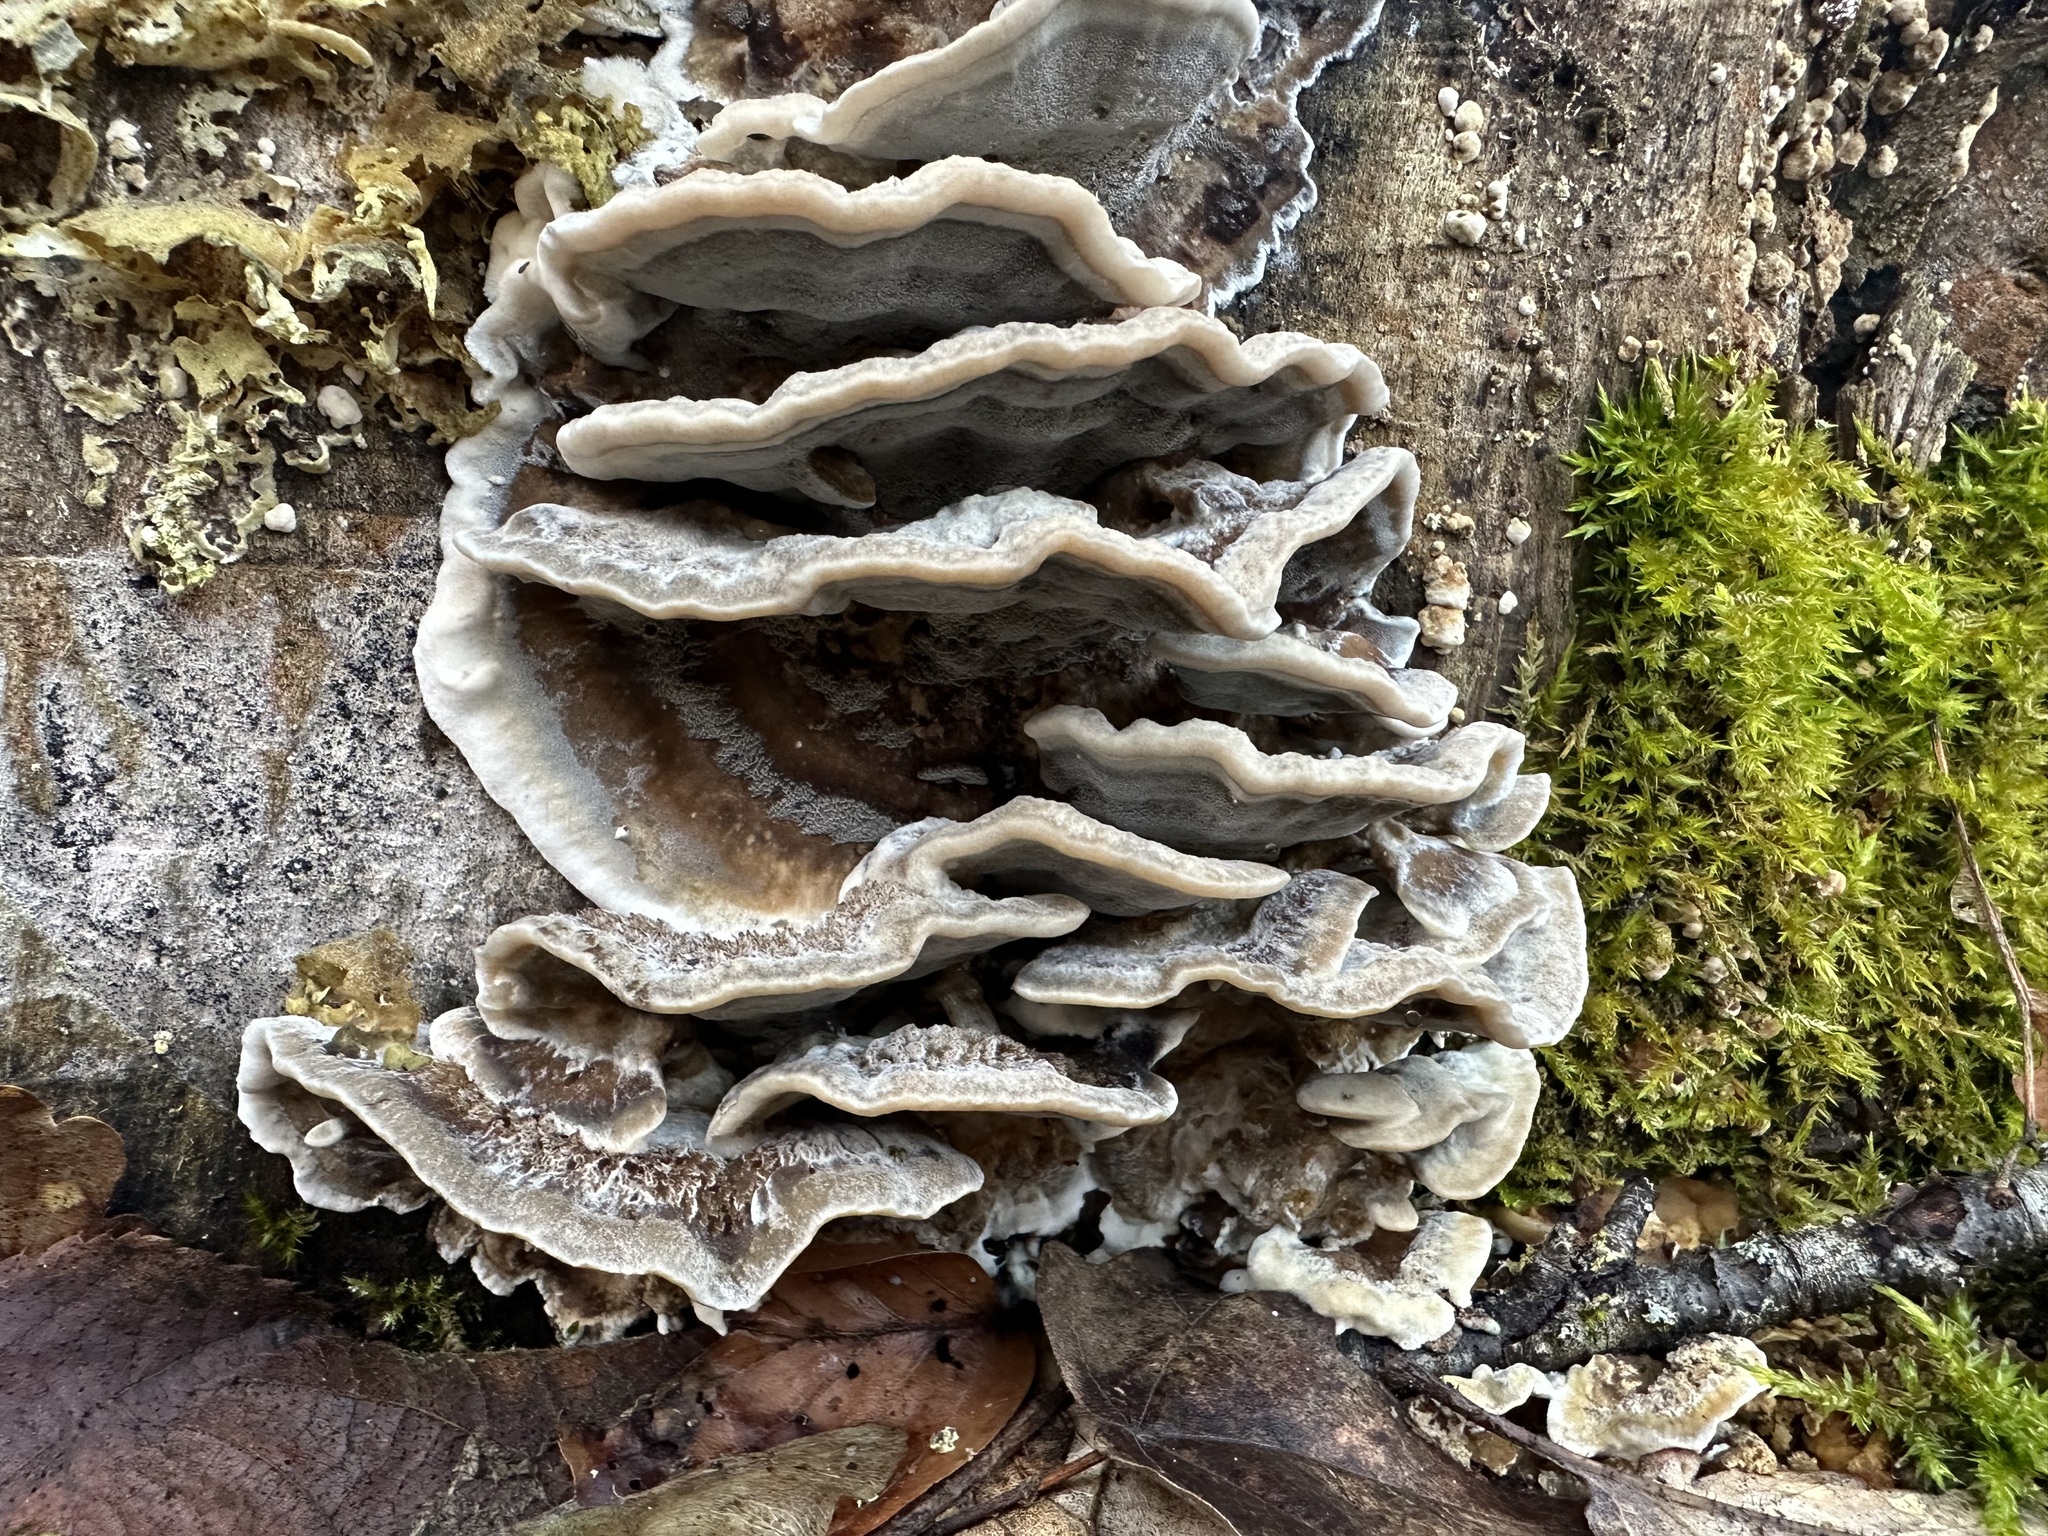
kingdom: Fungi
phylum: Basidiomycota
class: Agaricomycetes
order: Polyporales
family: Phanerochaetaceae
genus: Bjerkandera
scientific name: Bjerkandera adusta
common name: Smoky bracket
